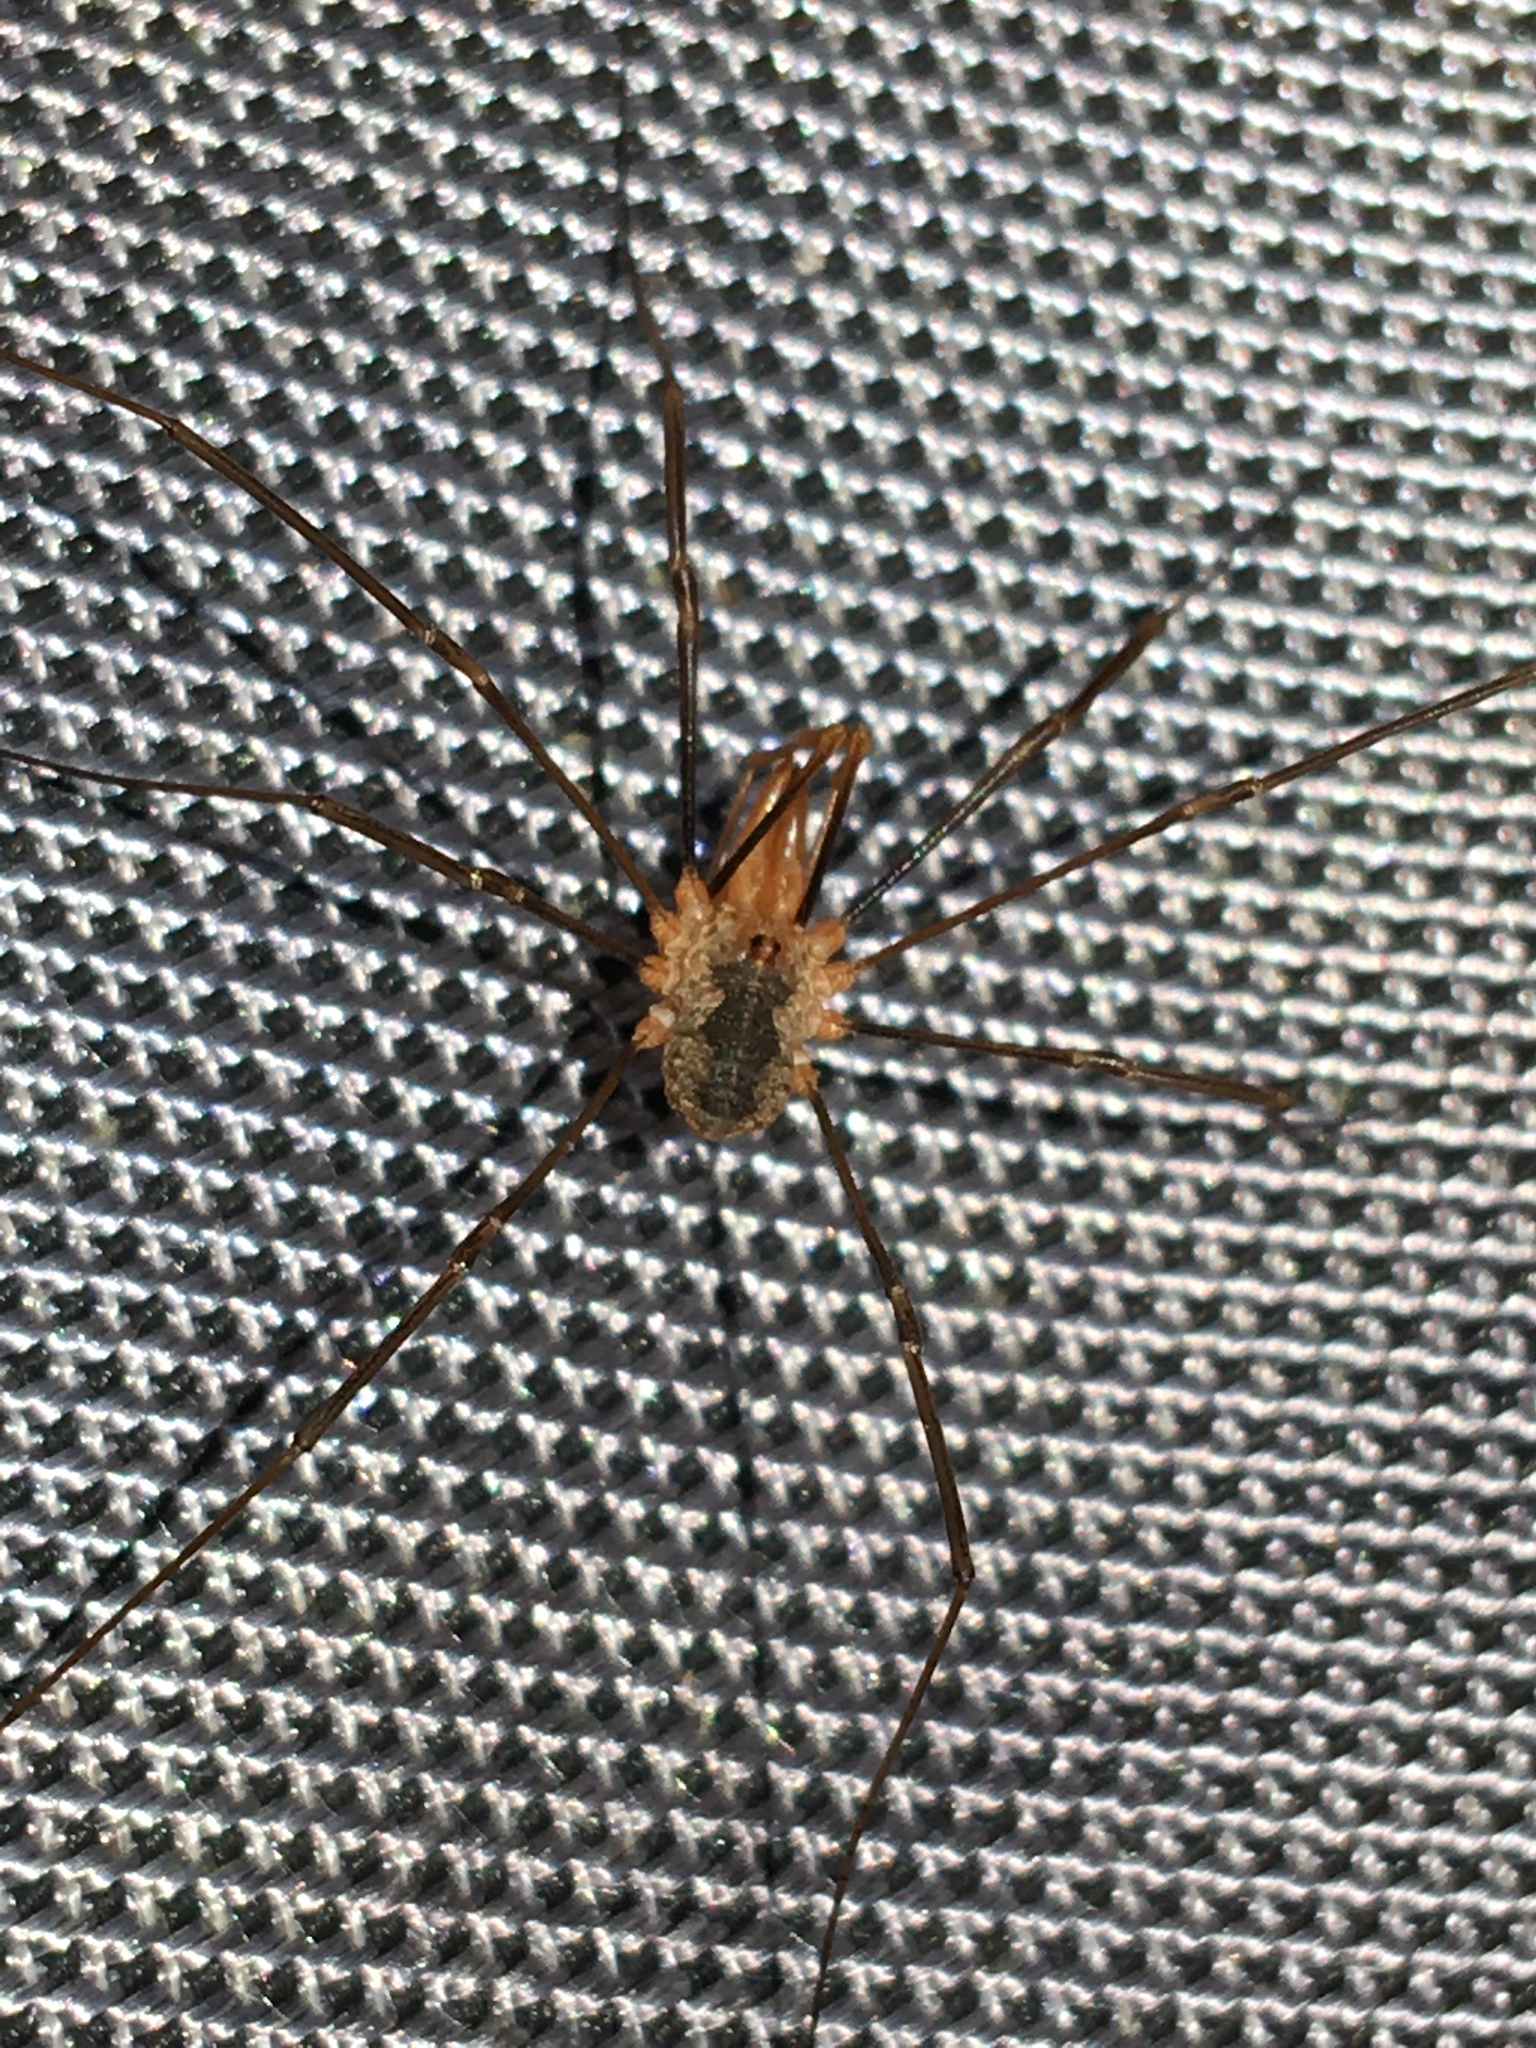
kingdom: Animalia
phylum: Arthropoda
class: Arachnida
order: Opiliones
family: Phalangiidae
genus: Phalangium
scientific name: Phalangium opilio
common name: Daddy longleg
